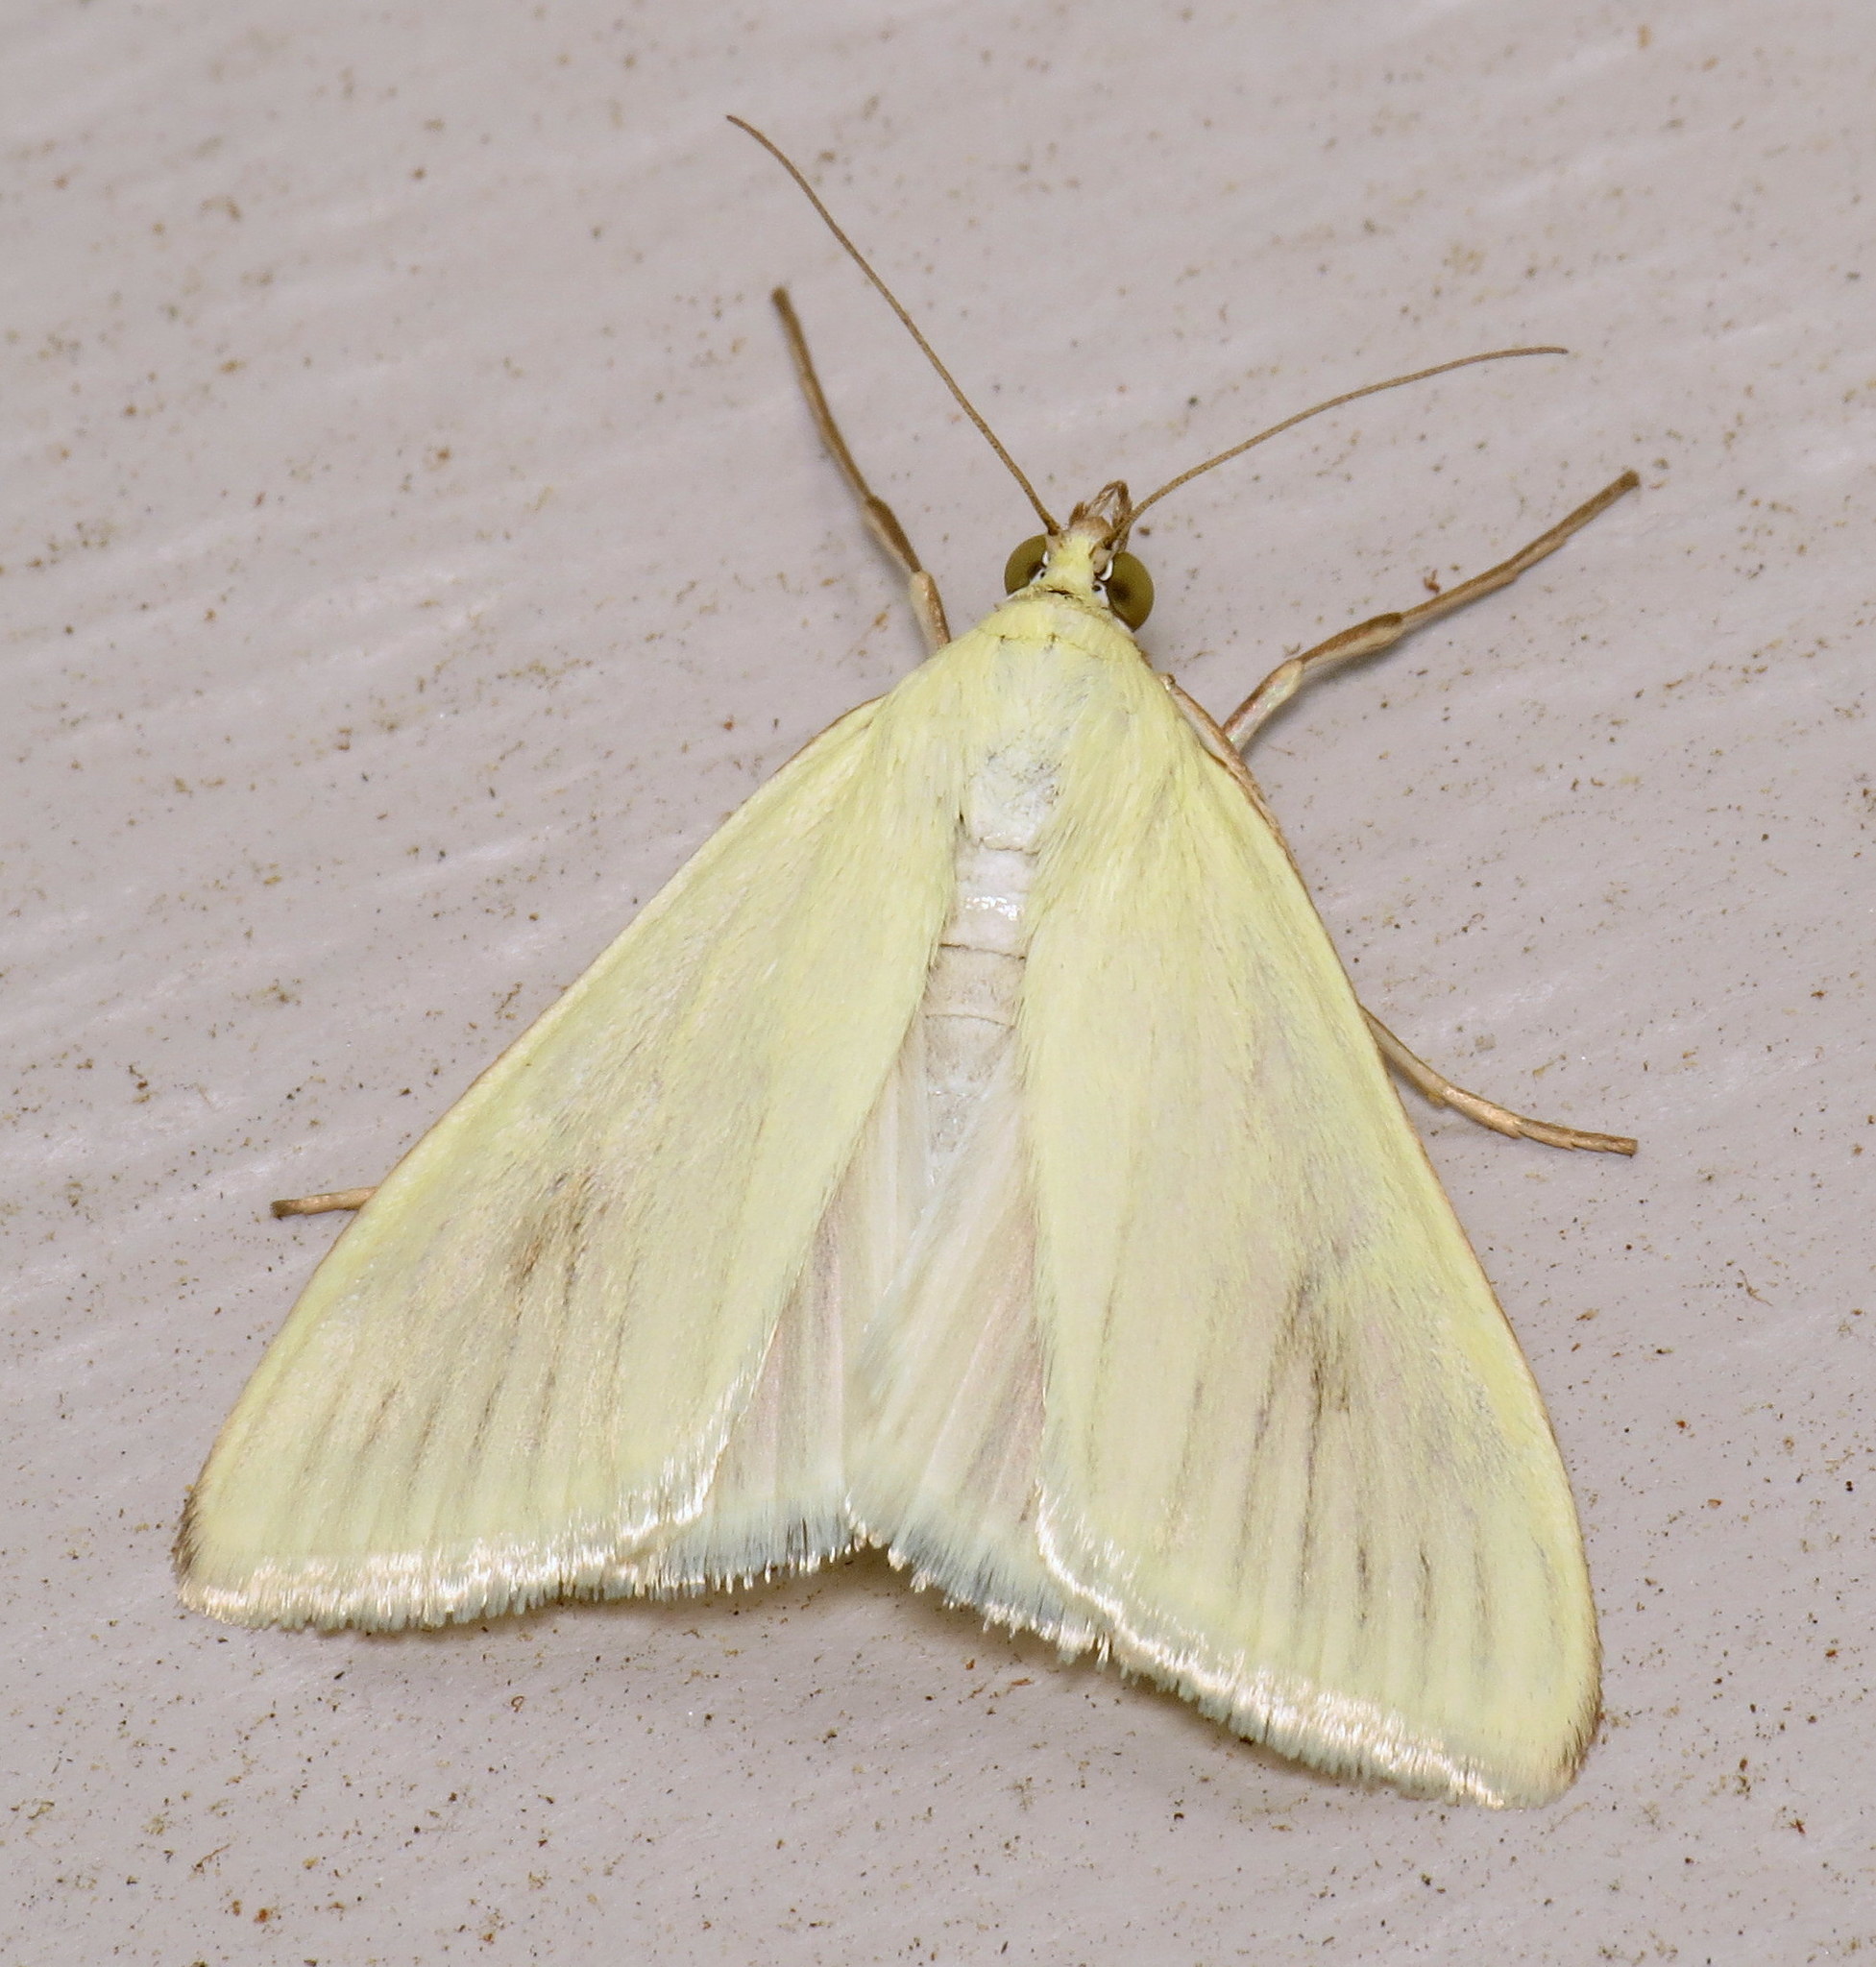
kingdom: Animalia
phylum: Arthropoda
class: Insecta
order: Lepidoptera
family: Crambidae
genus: Sitochroa
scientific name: Sitochroa palealis
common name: Greenish-yellow sitochroa moth
